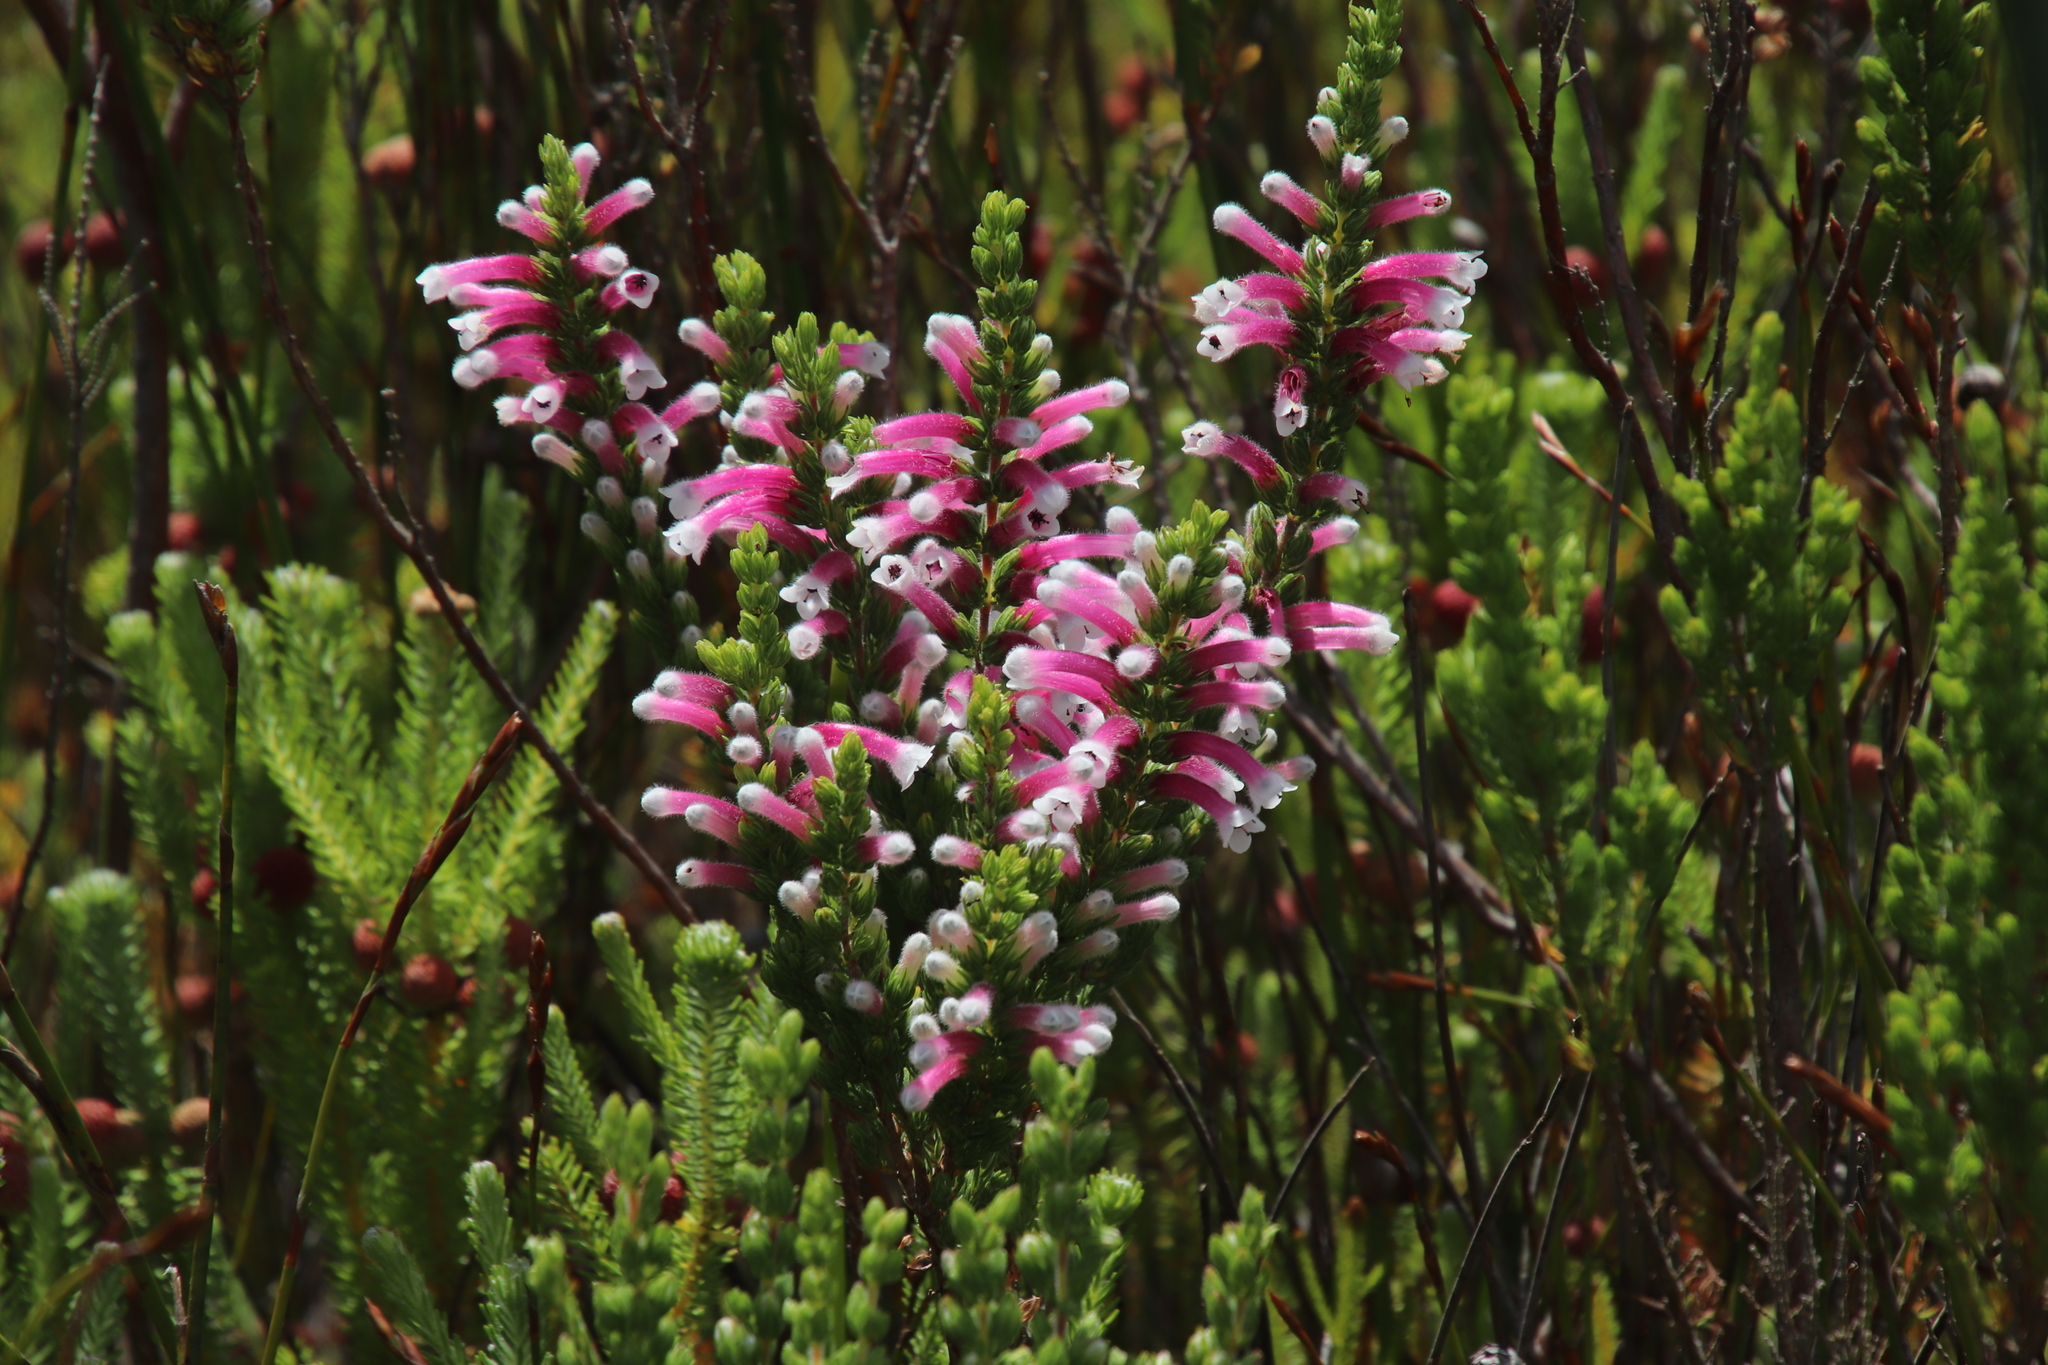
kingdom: Plantae
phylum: Tracheophyta
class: Magnoliopsida
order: Ericales
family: Ericaceae
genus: Erica
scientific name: Erica macowanii
